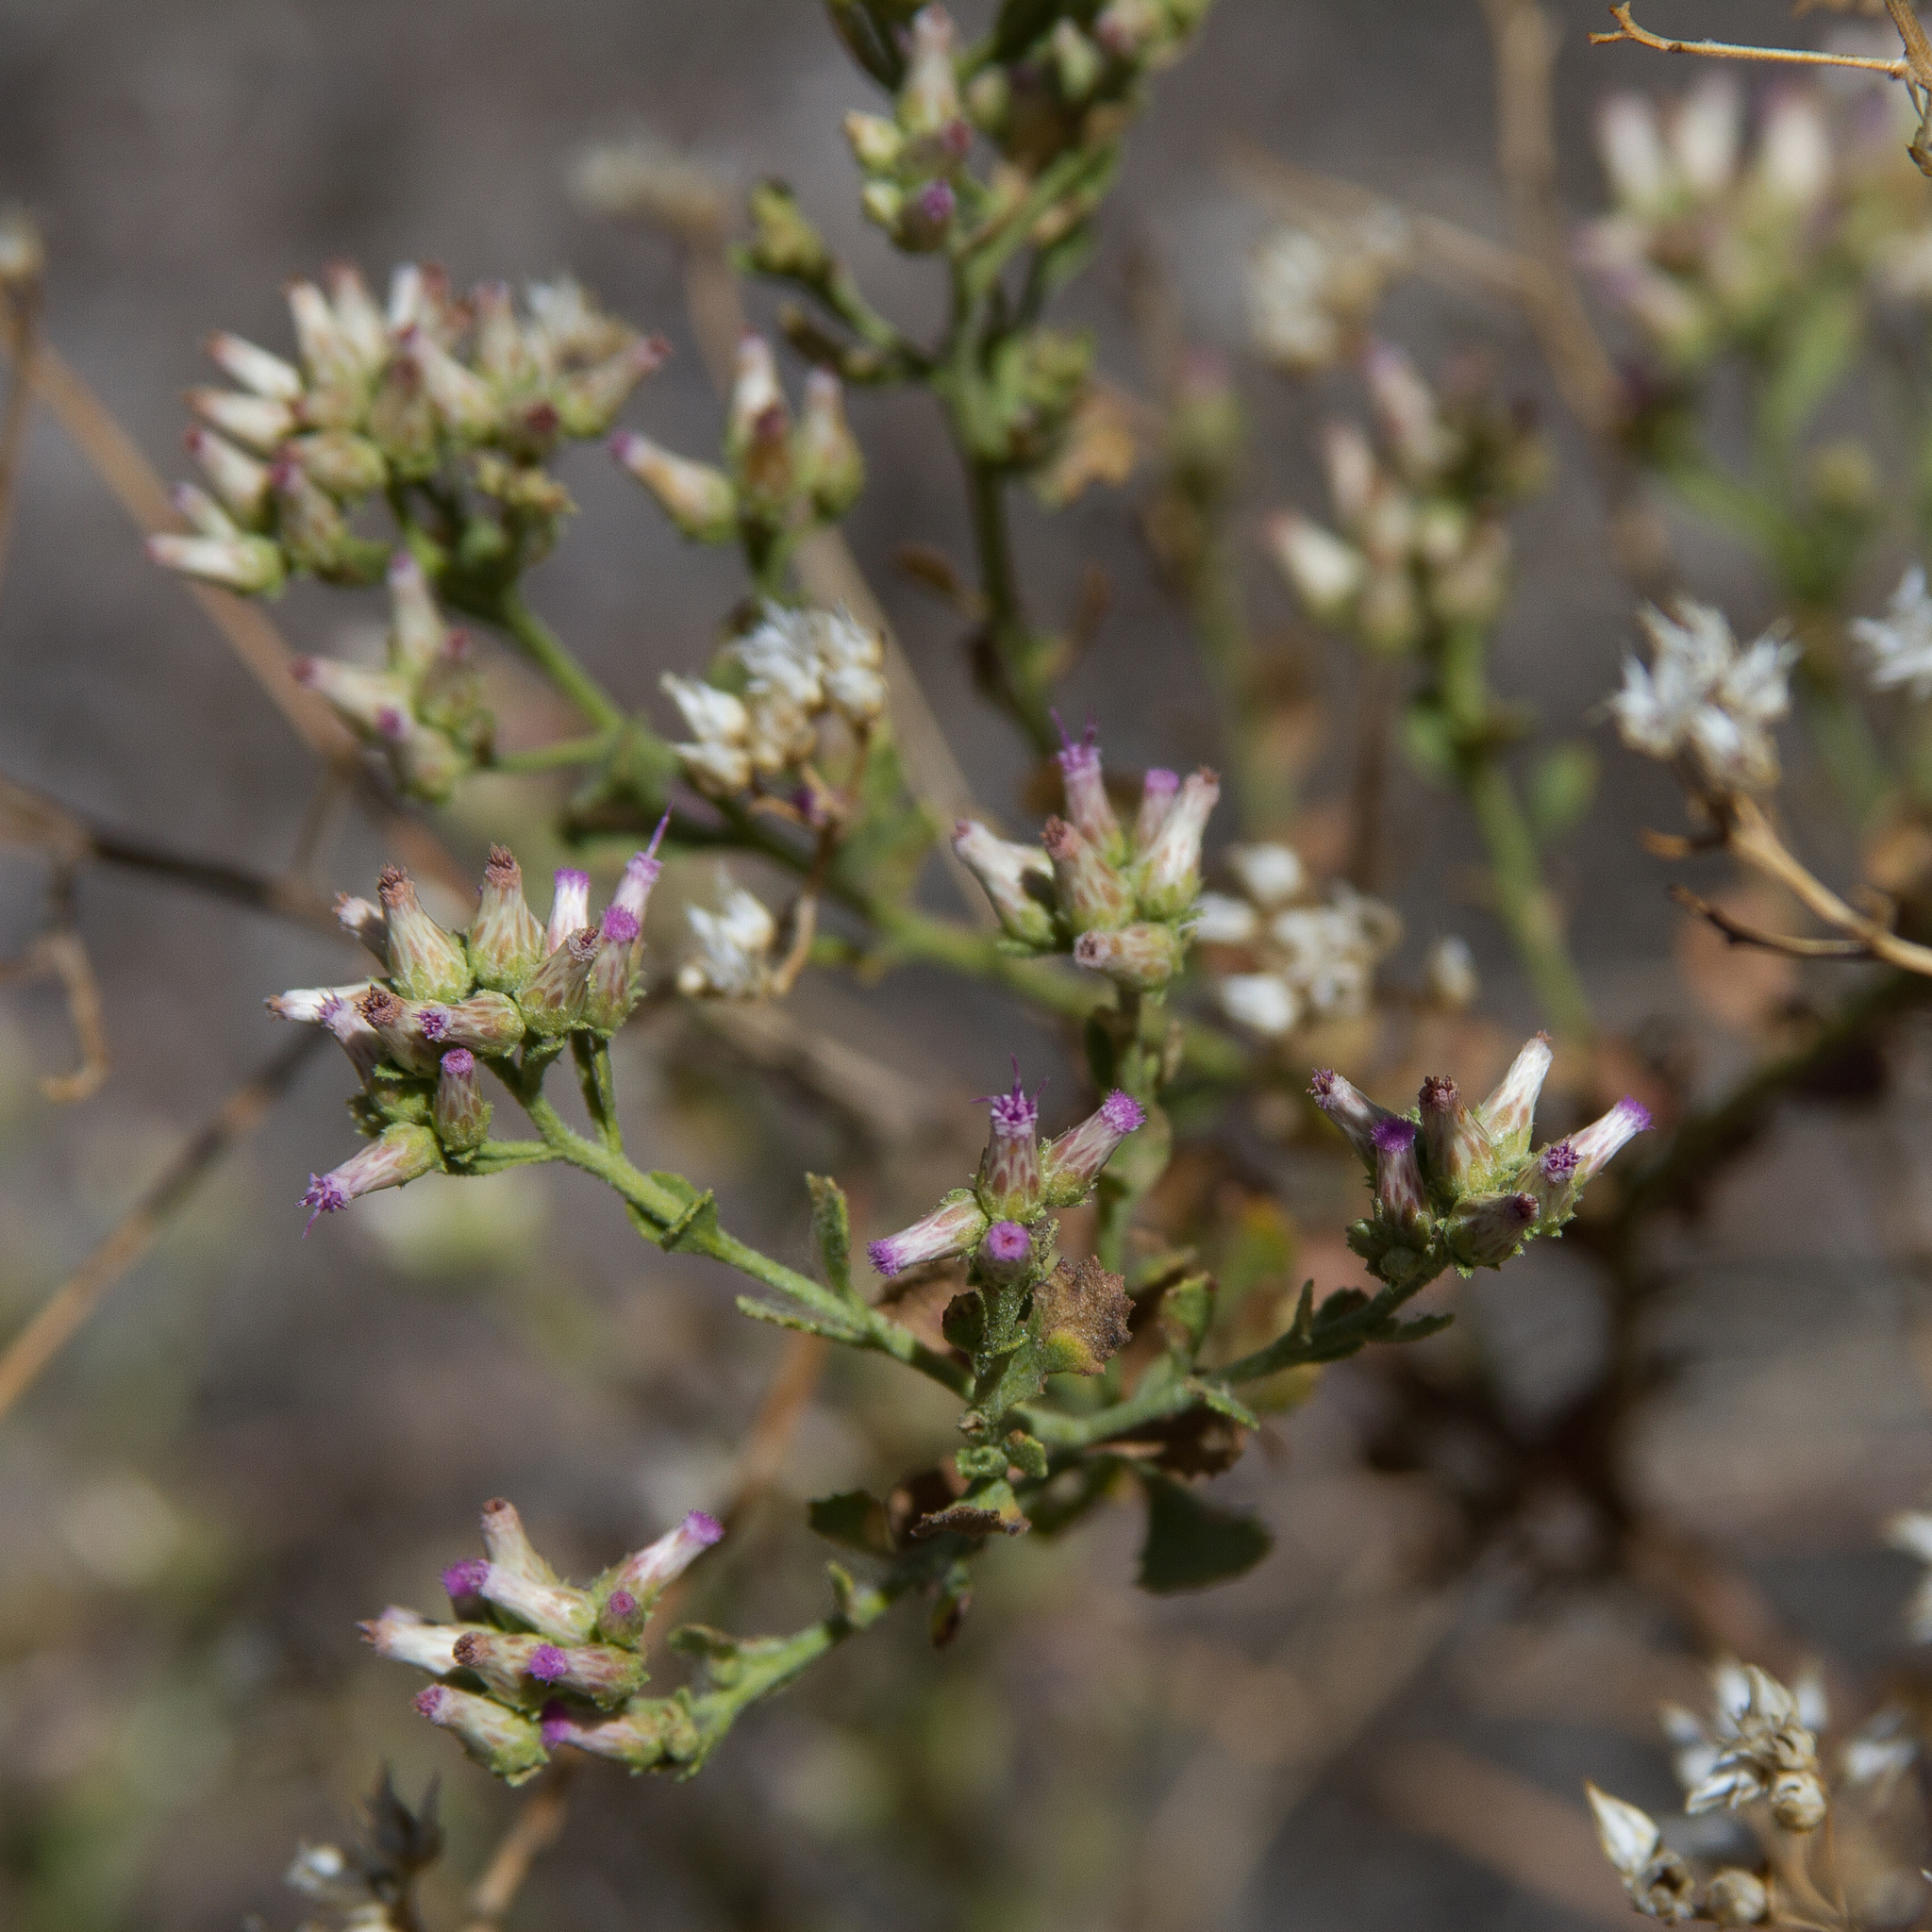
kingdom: Plantae
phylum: Tracheophyta
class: Magnoliopsida
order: Asterales
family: Asteraceae
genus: Pluchea
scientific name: Pluchea dunlopii
